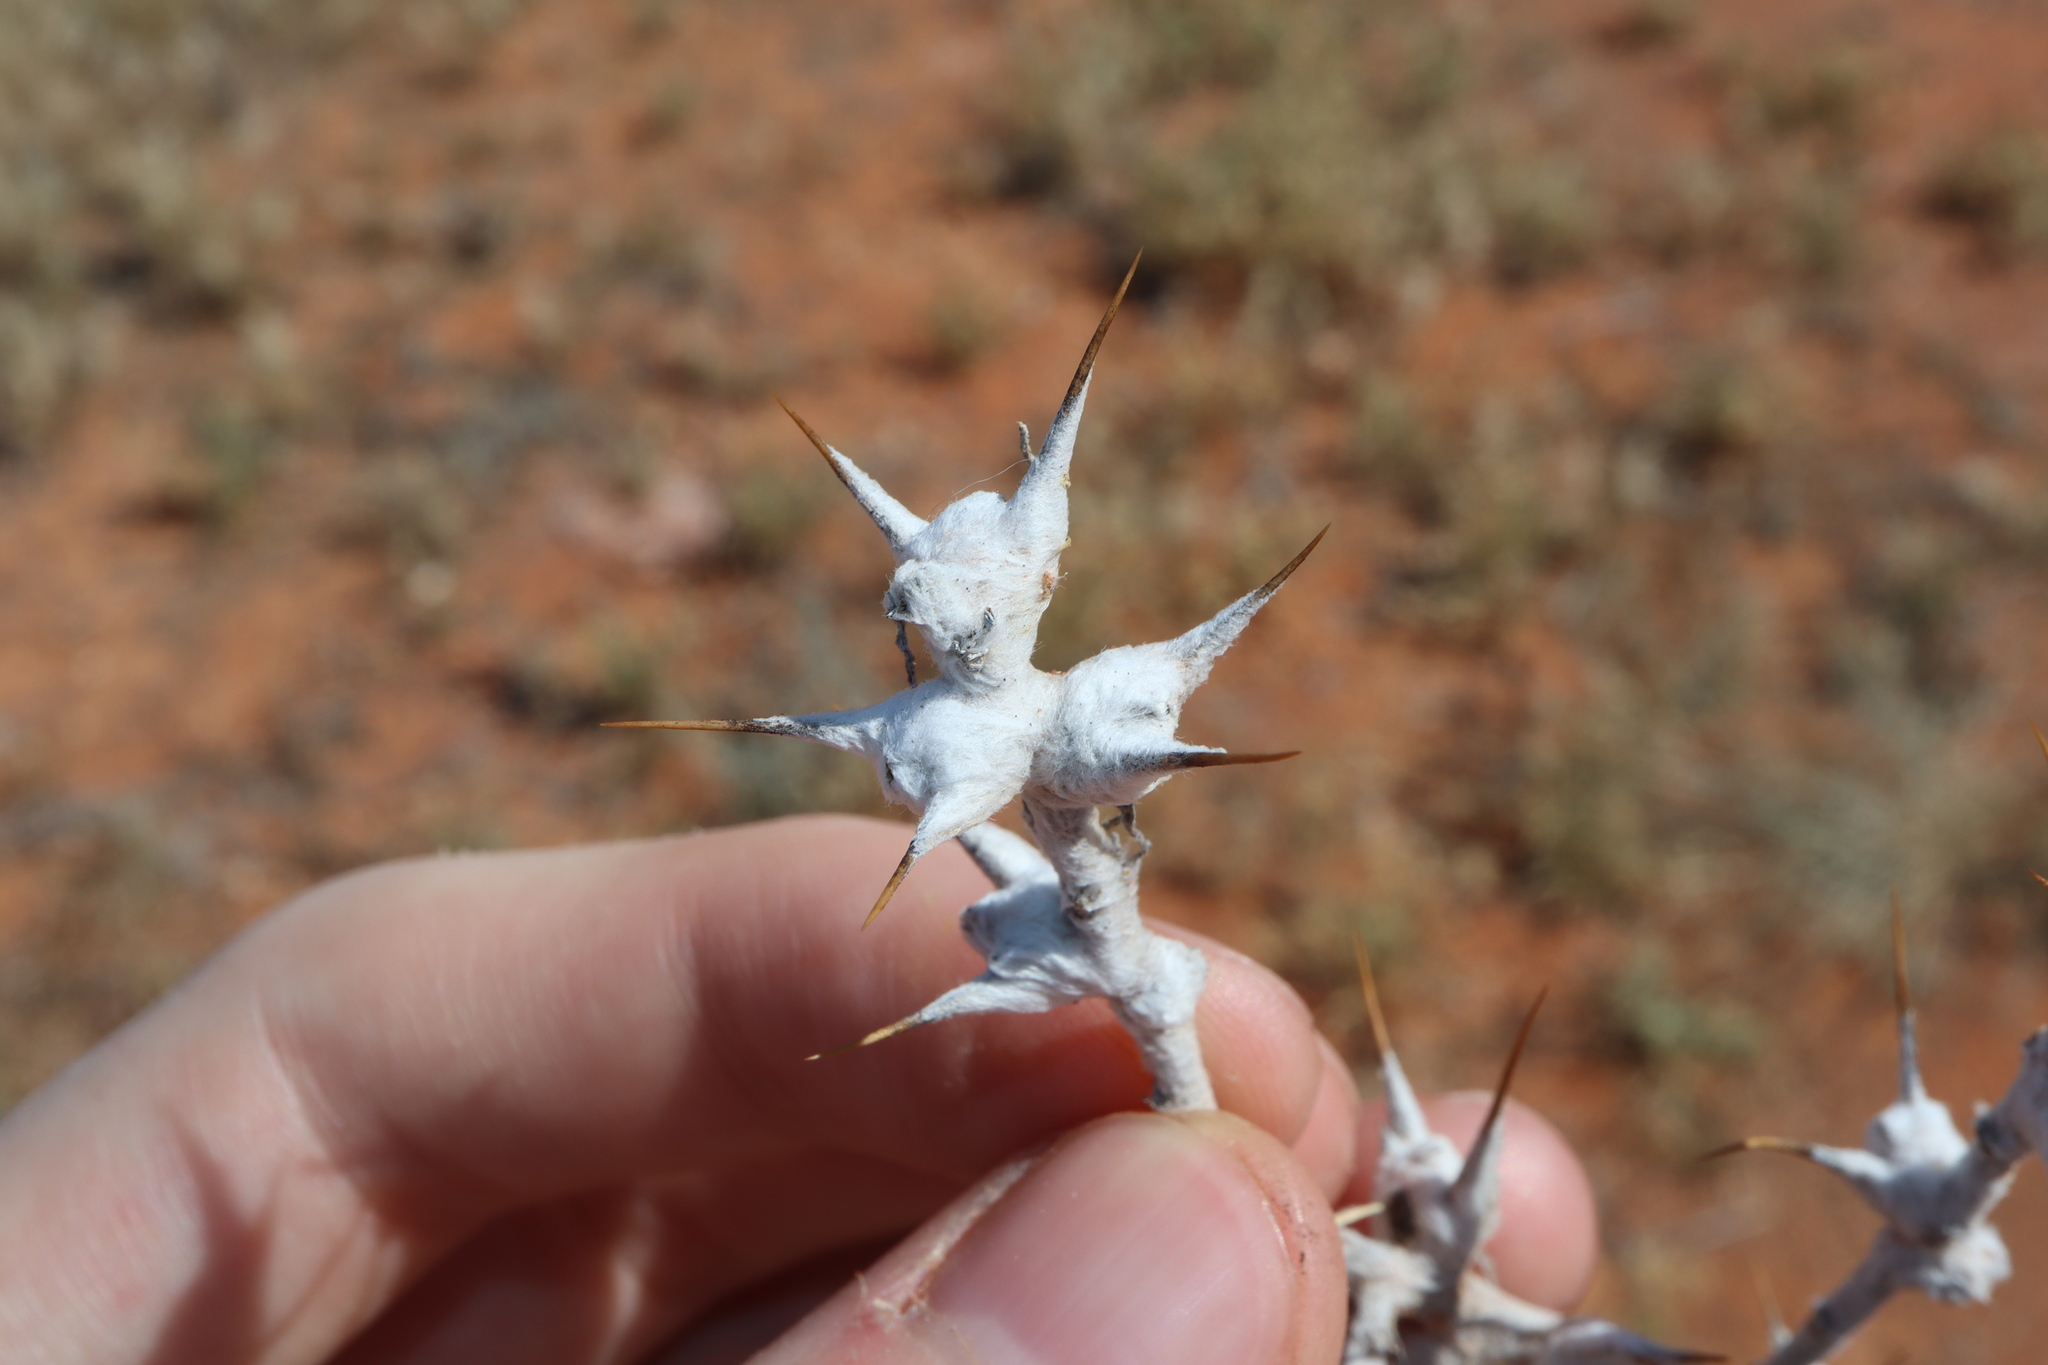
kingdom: Plantae
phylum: Tracheophyta
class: Magnoliopsida
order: Caryophyllales
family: Amaranthaceae
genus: Sclerolaena
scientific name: Sclerolaena bicornis
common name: Goatheadbur
